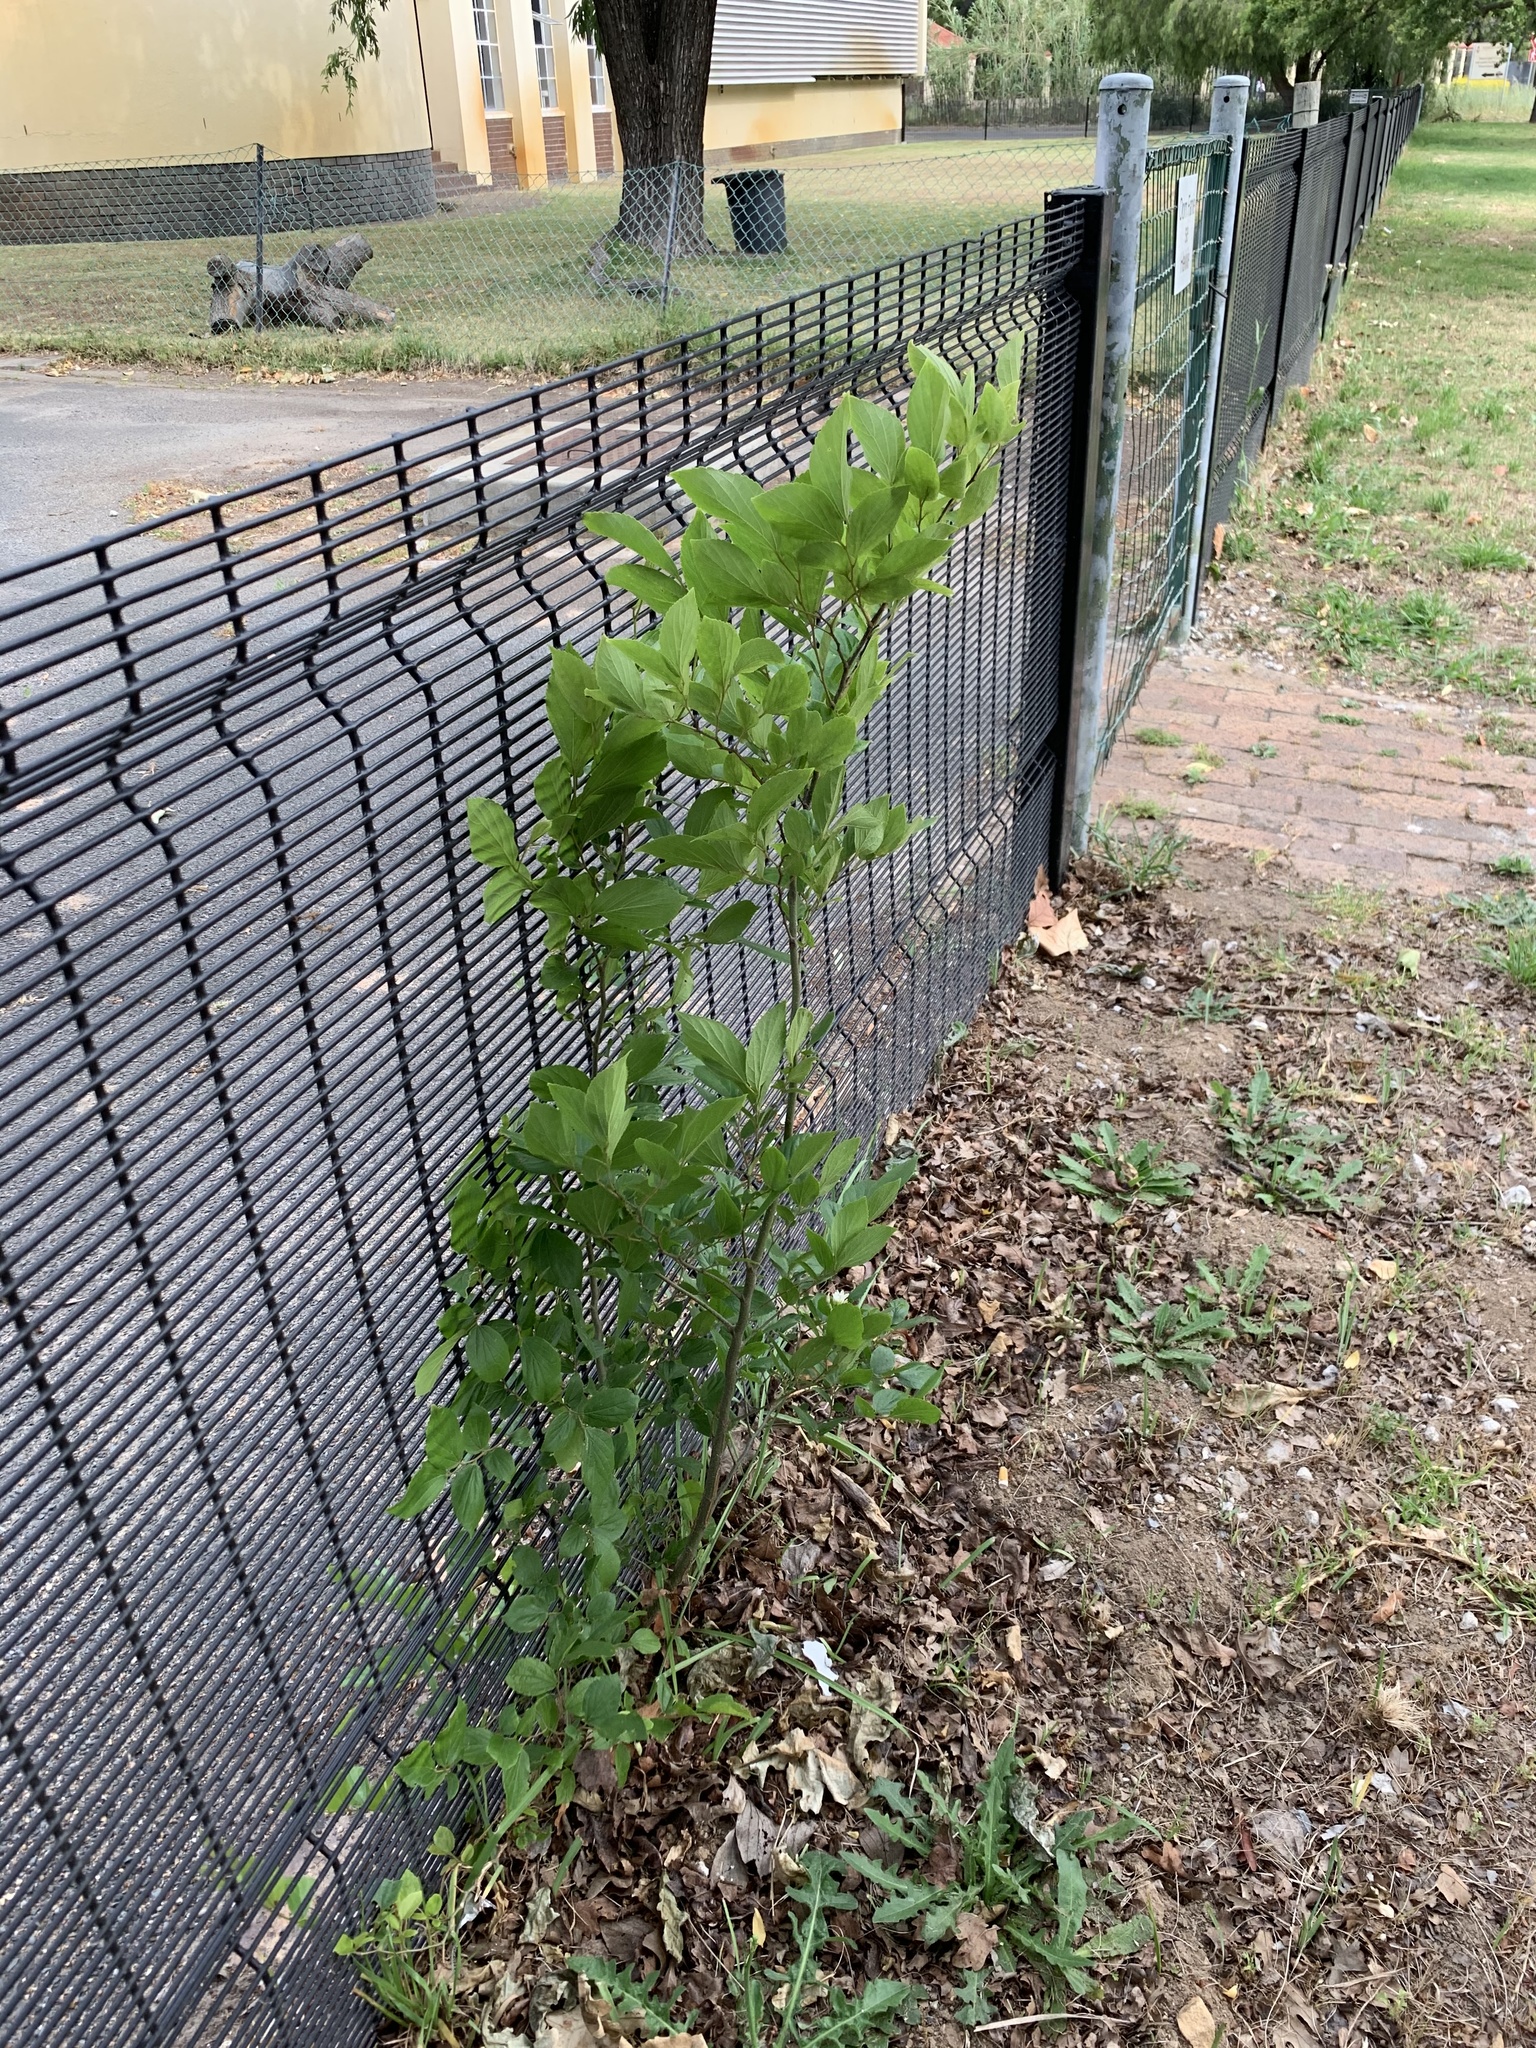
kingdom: Plantae
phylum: Tracheophyta
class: Magnoliopsida
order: Rosales
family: Cannabaceae
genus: Celtis
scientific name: Celtis sinensis
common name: Chinese hackberry
